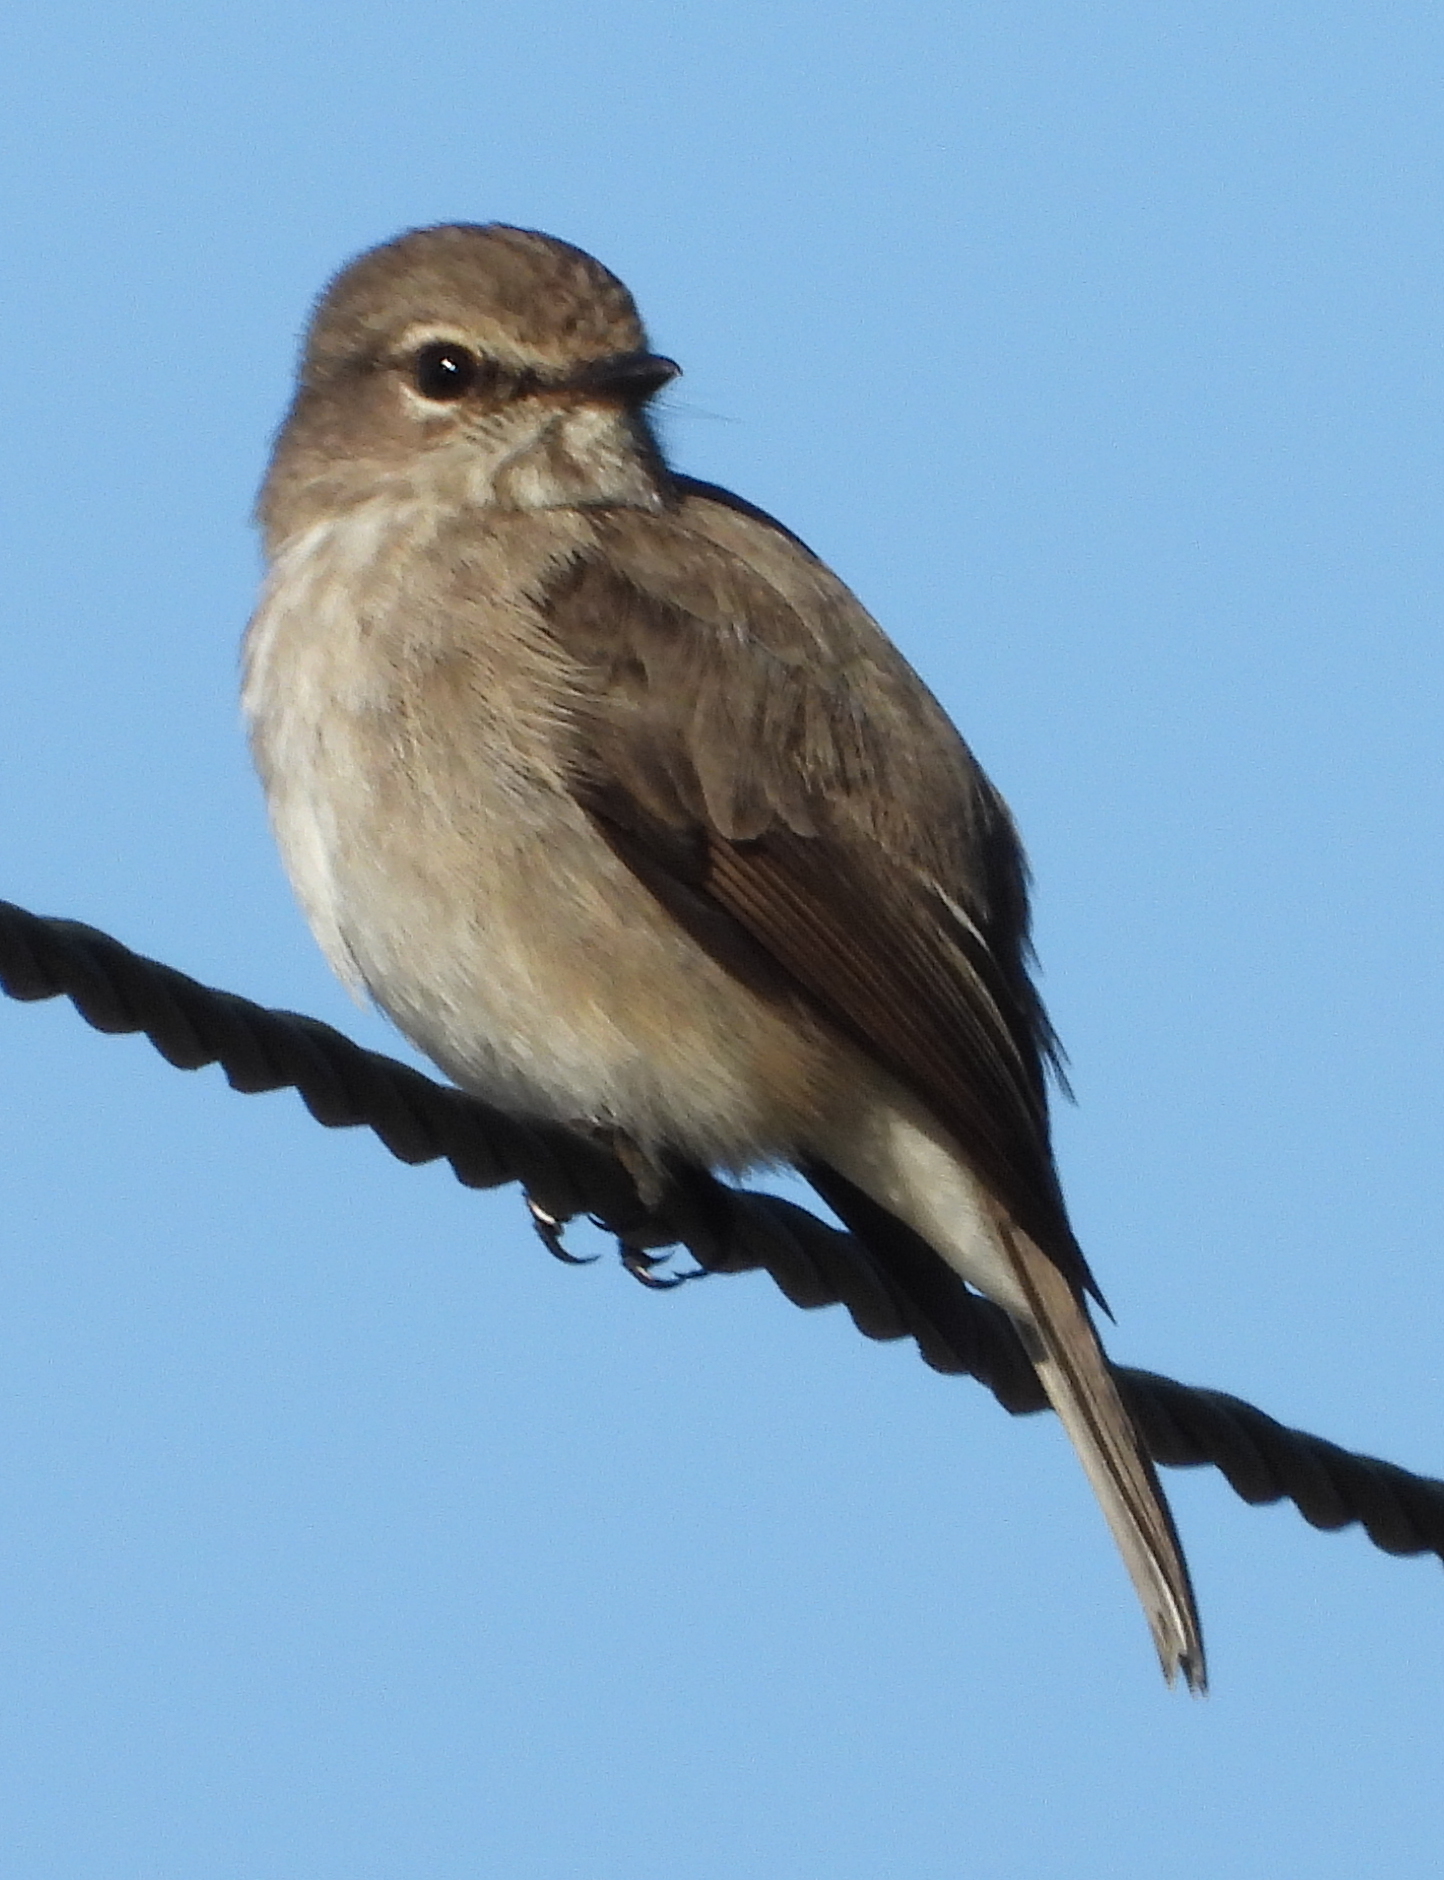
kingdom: Animalia
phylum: Chordata
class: Aves
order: Passeriformes
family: Muscicapidae
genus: Muscicapa
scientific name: Muscicapa adusta
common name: African dusky flycatcher
